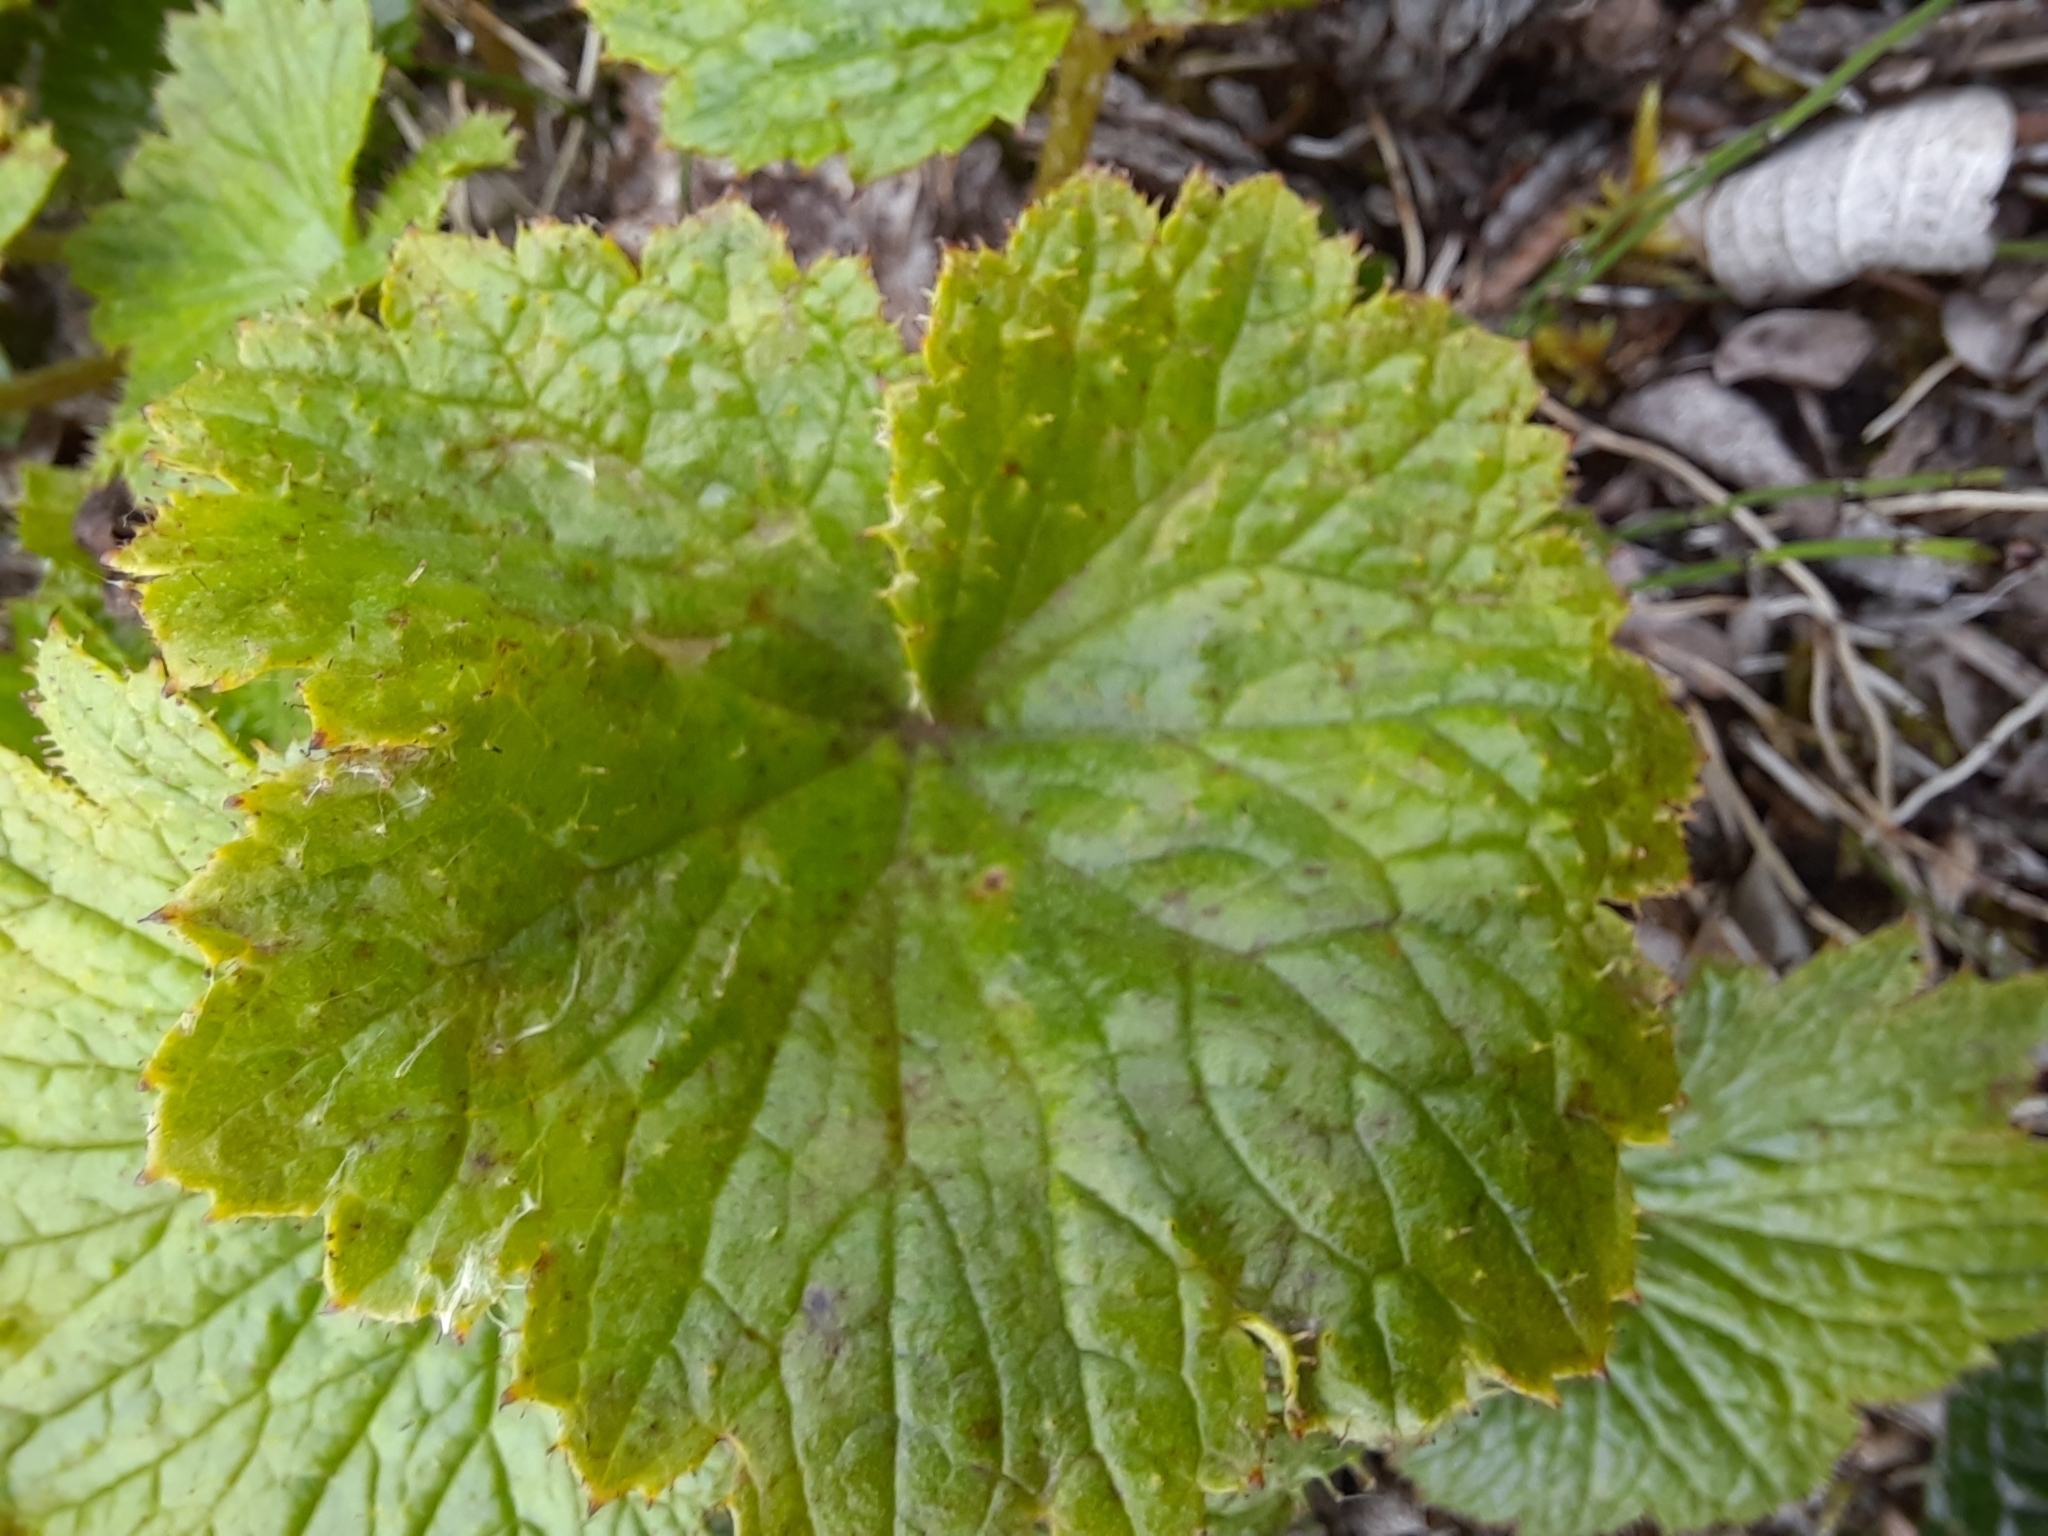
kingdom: Plantae
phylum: Tracheophyta
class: Magnoliopsida
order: Saxifragales
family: Saxifragaceae
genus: Boykinia
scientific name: Boykinia richardsonii
